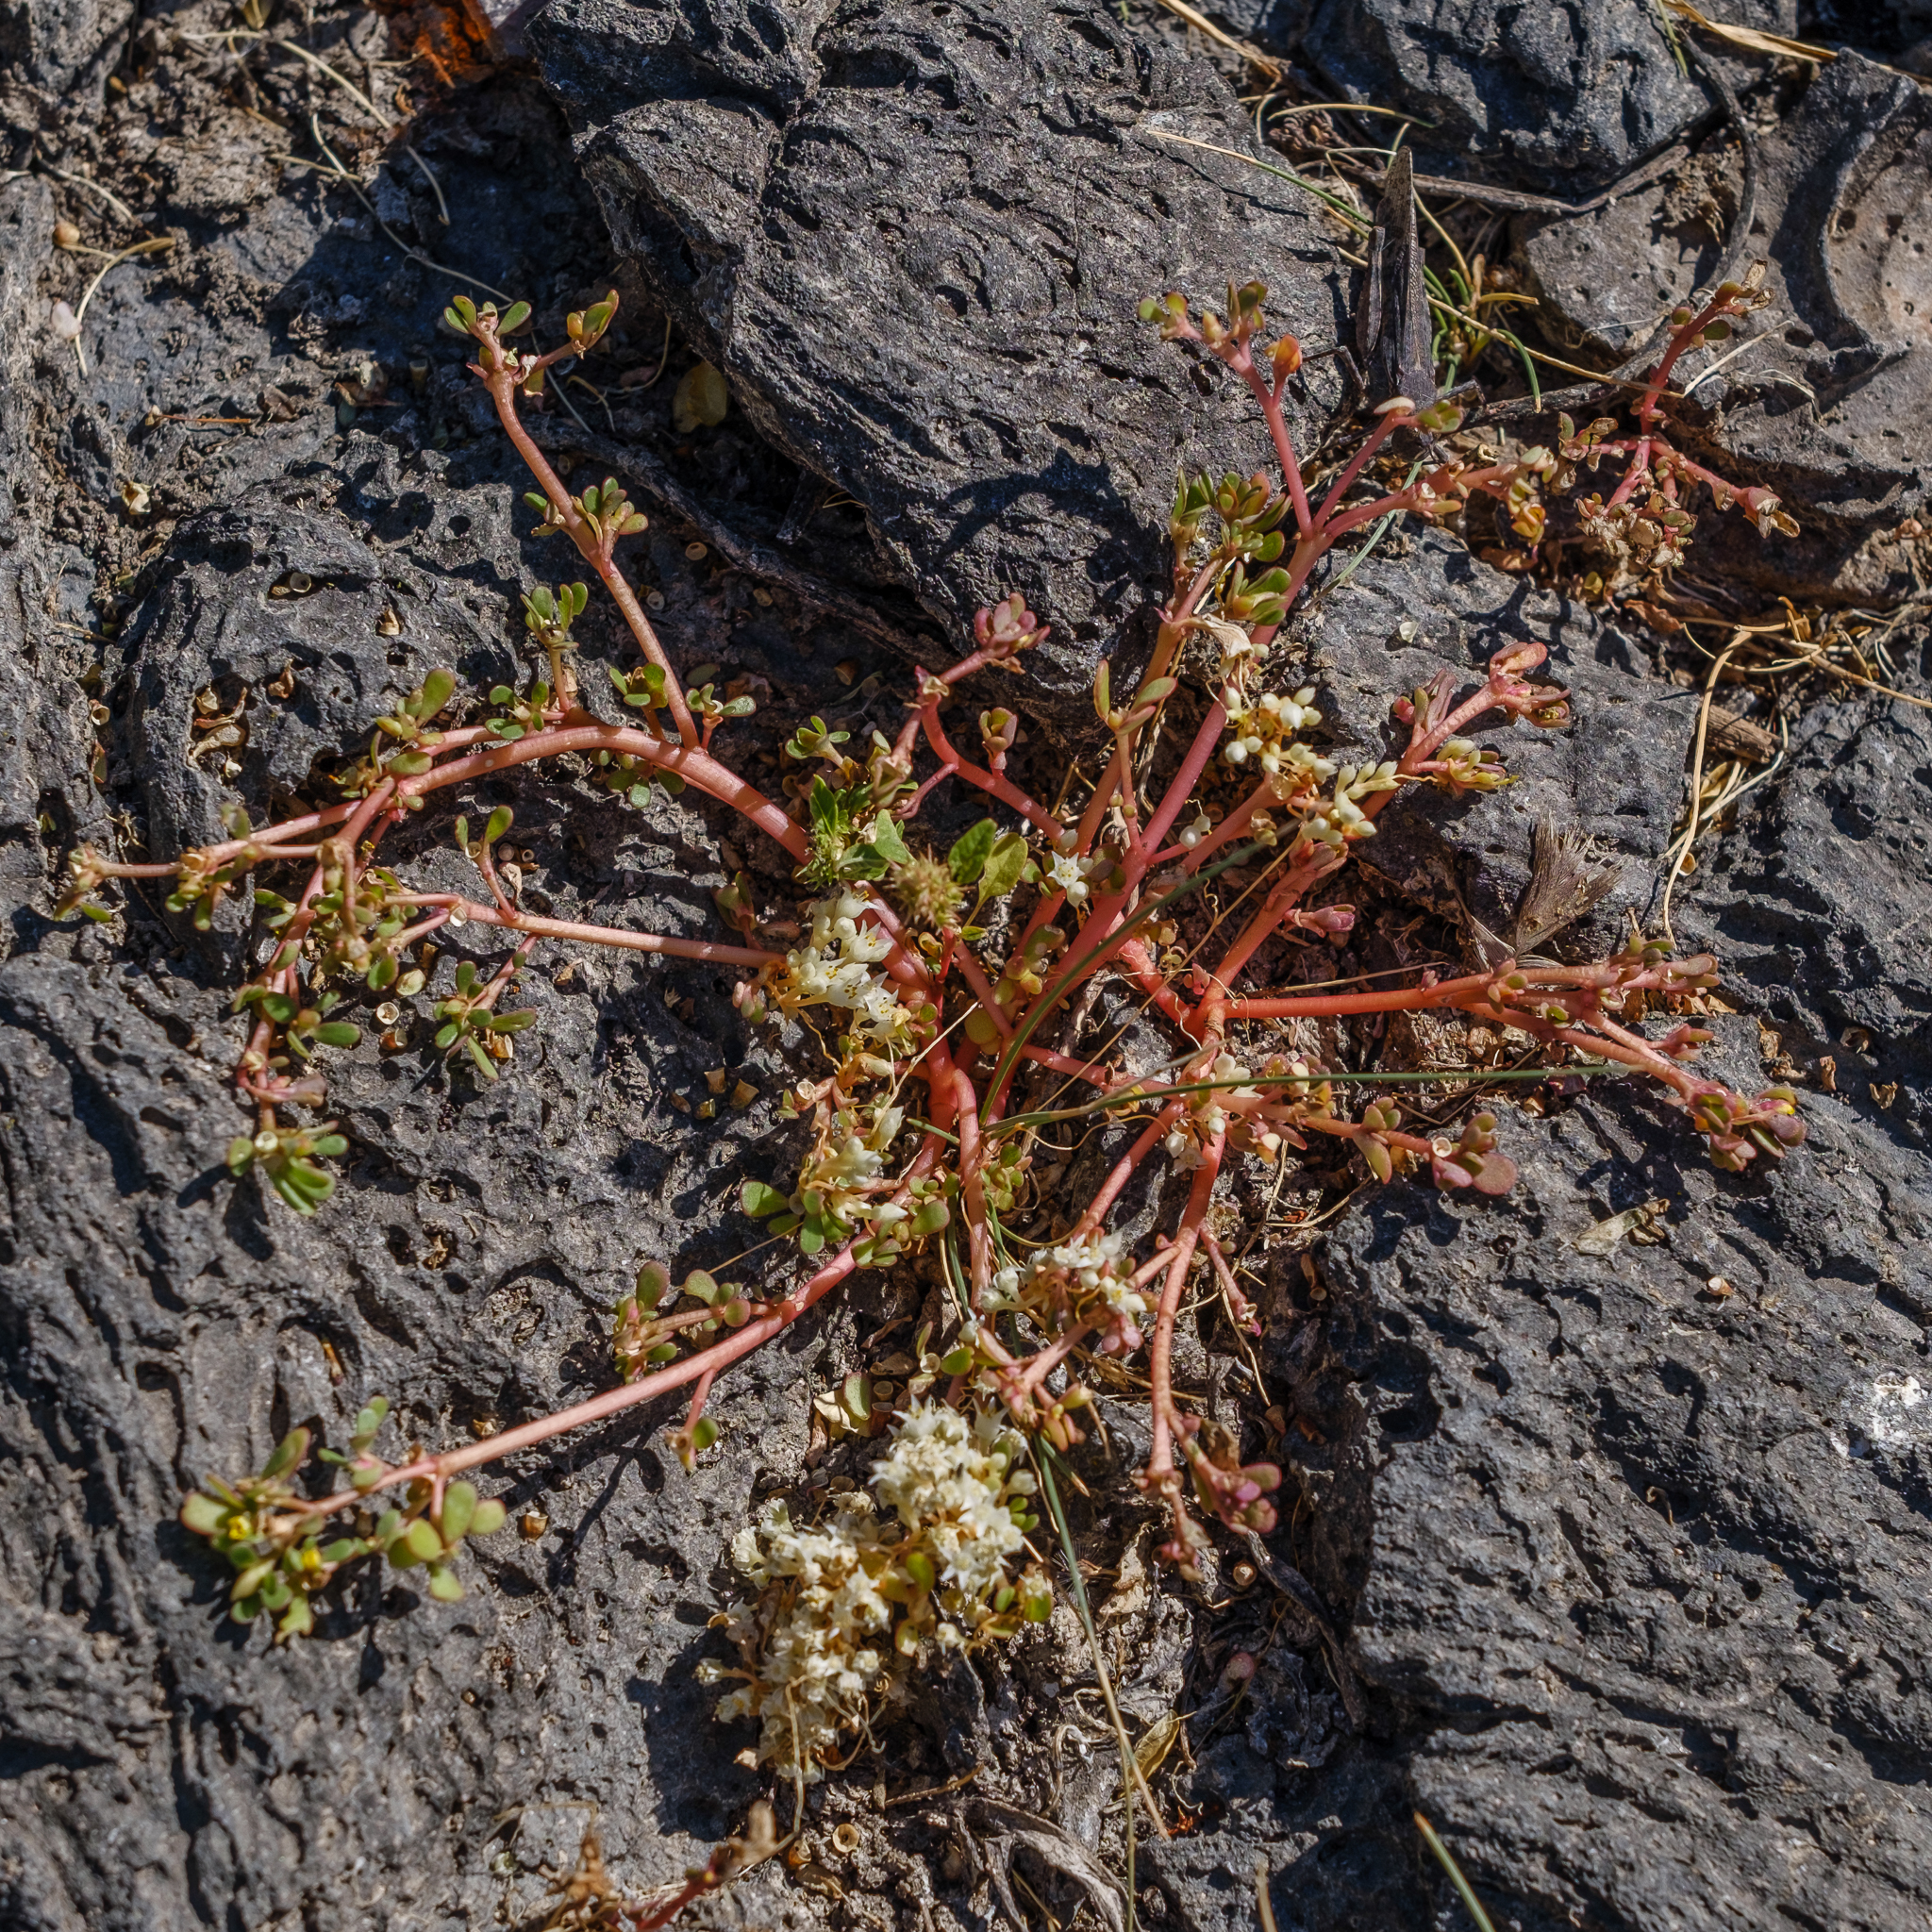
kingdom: Plantae
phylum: Tracheophyta
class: Magnoliopsida
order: Caryophyllales
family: Portulacaceae
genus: Portulaca
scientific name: Portulaca oleracea
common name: Common purslane
